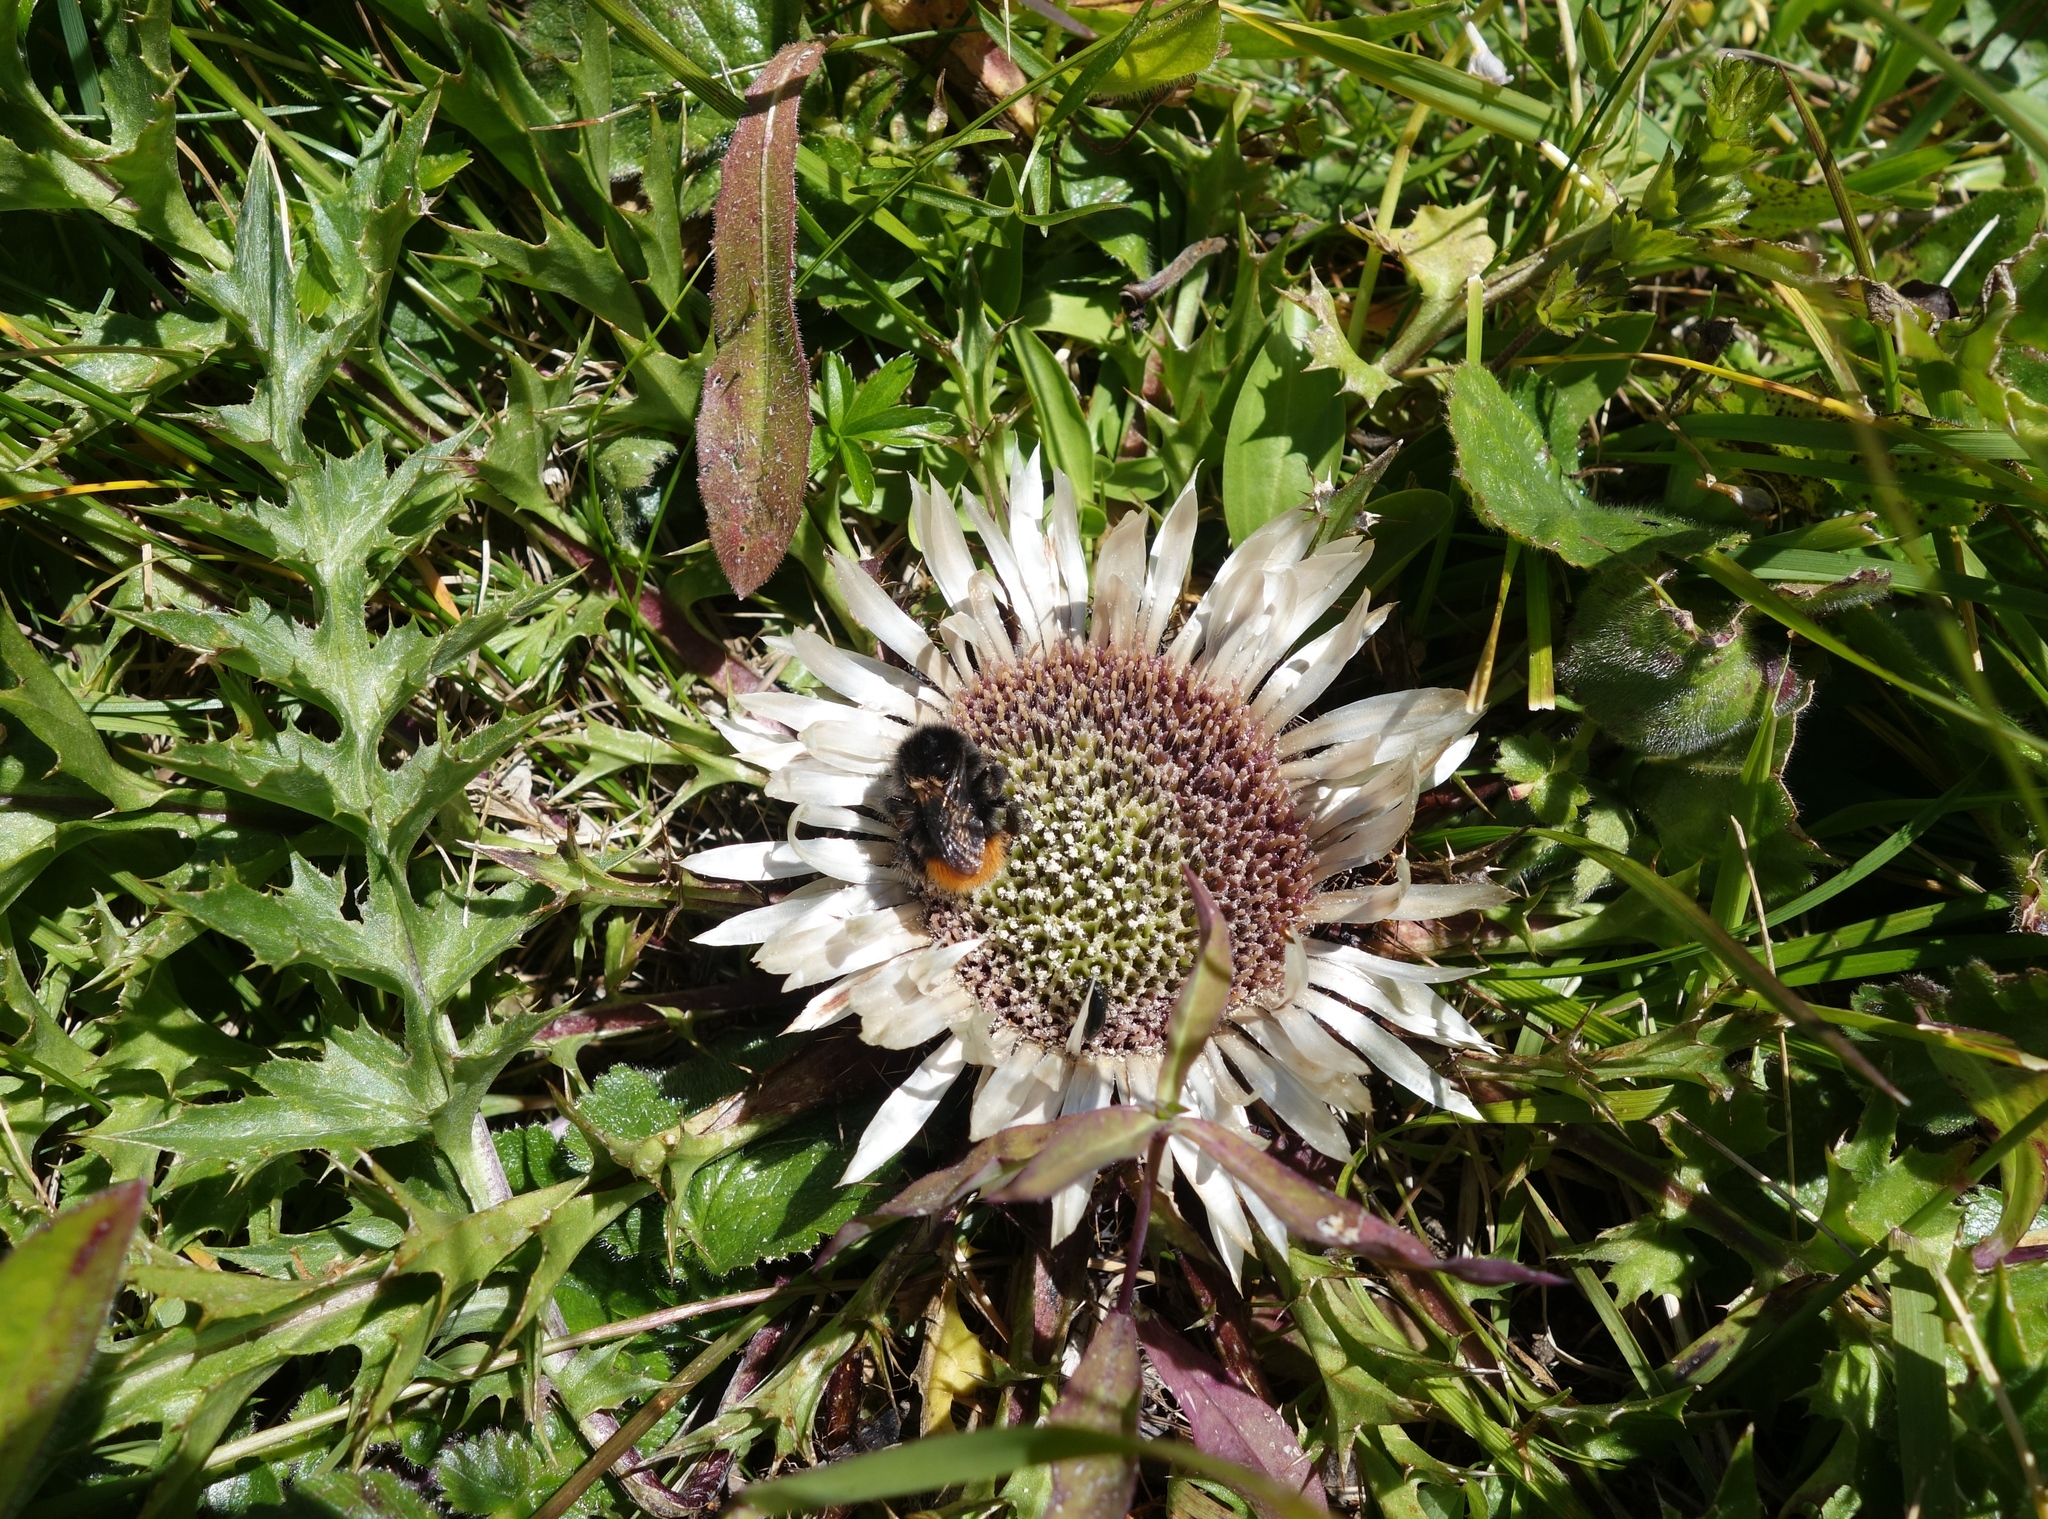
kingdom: Plantae
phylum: Tracheophyta
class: Magnoliopsida
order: Asterales
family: Asteraceae
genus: Carlina
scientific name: Carlina acaulis
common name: Stemless carline thistle
